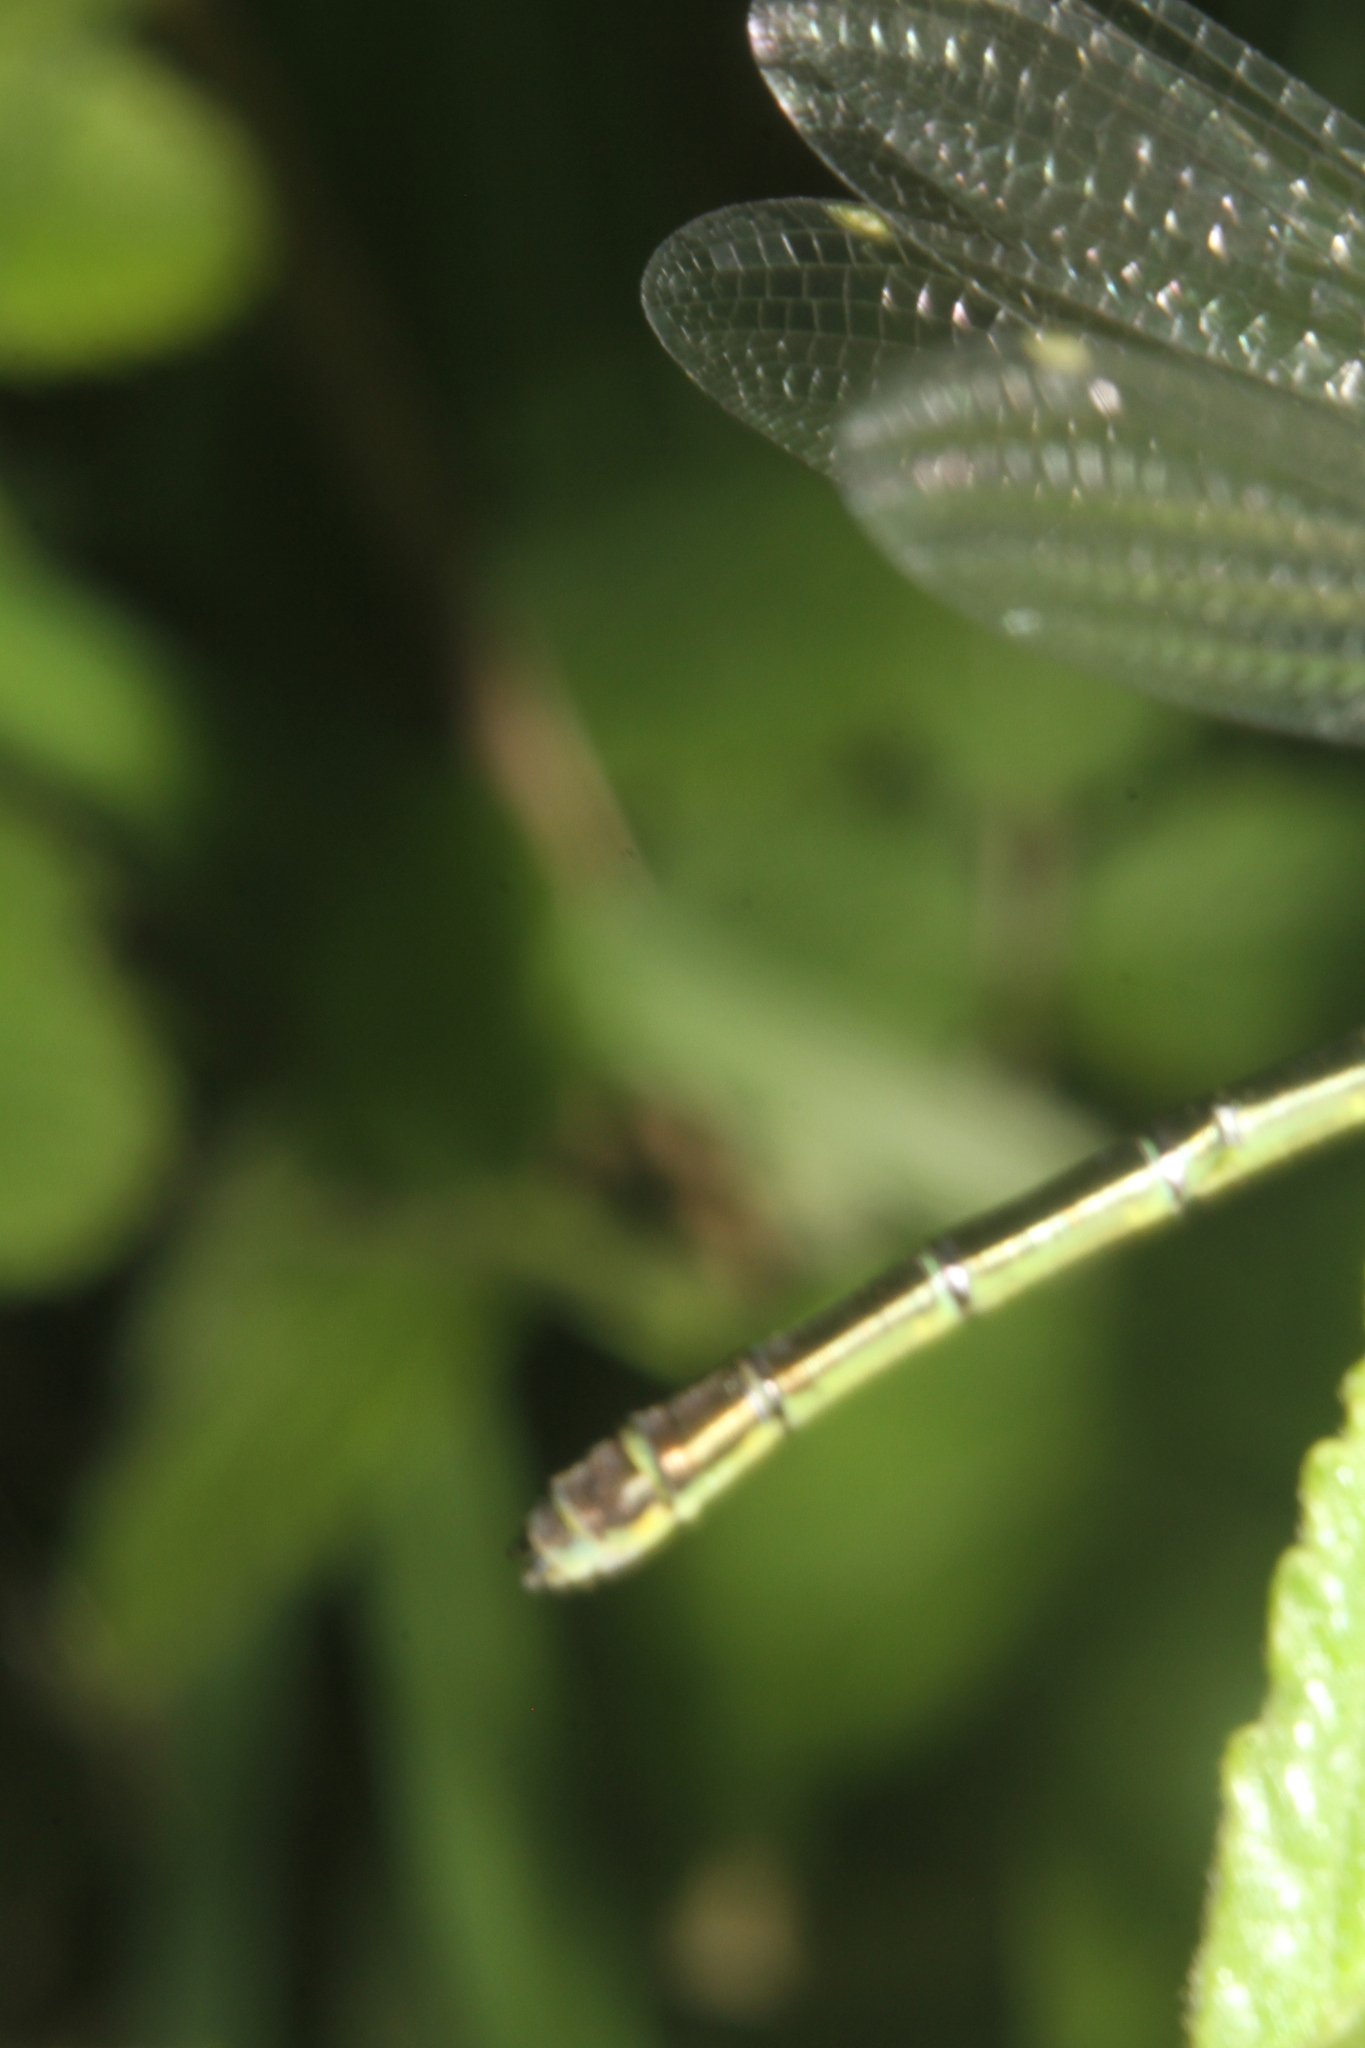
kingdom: Animalia
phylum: Arthropoda
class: Insecta
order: Odonata
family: Coenagrionidae
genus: Erythromma
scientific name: Erythromma najas
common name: Red-eyed damselfly
